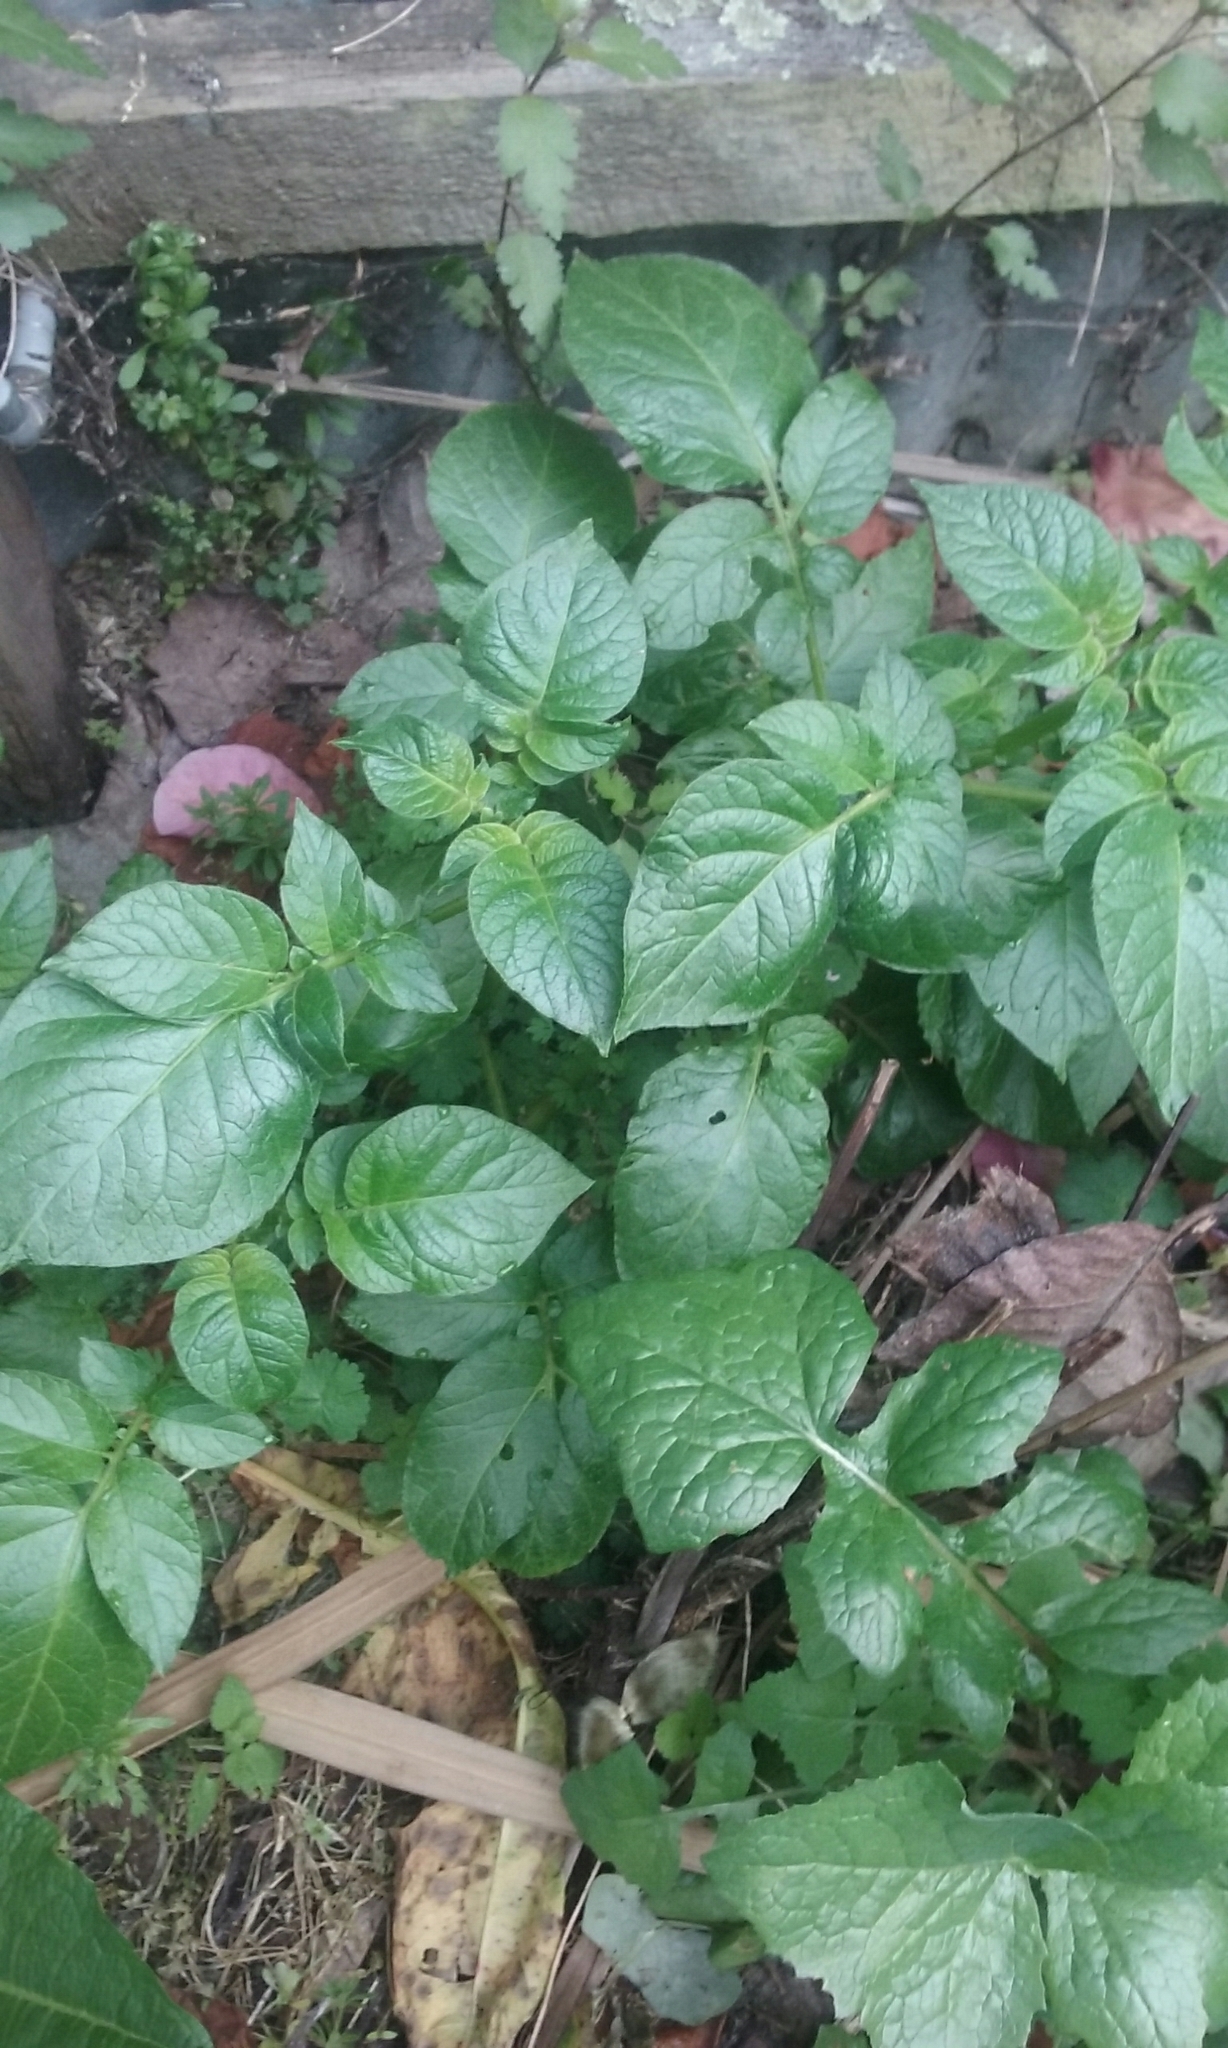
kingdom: Plantae
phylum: Tracheophyta
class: Magnoliopsida
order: Solanales
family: Solanaceae
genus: Solanum
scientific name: Solanum tuberosum
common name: Potato
